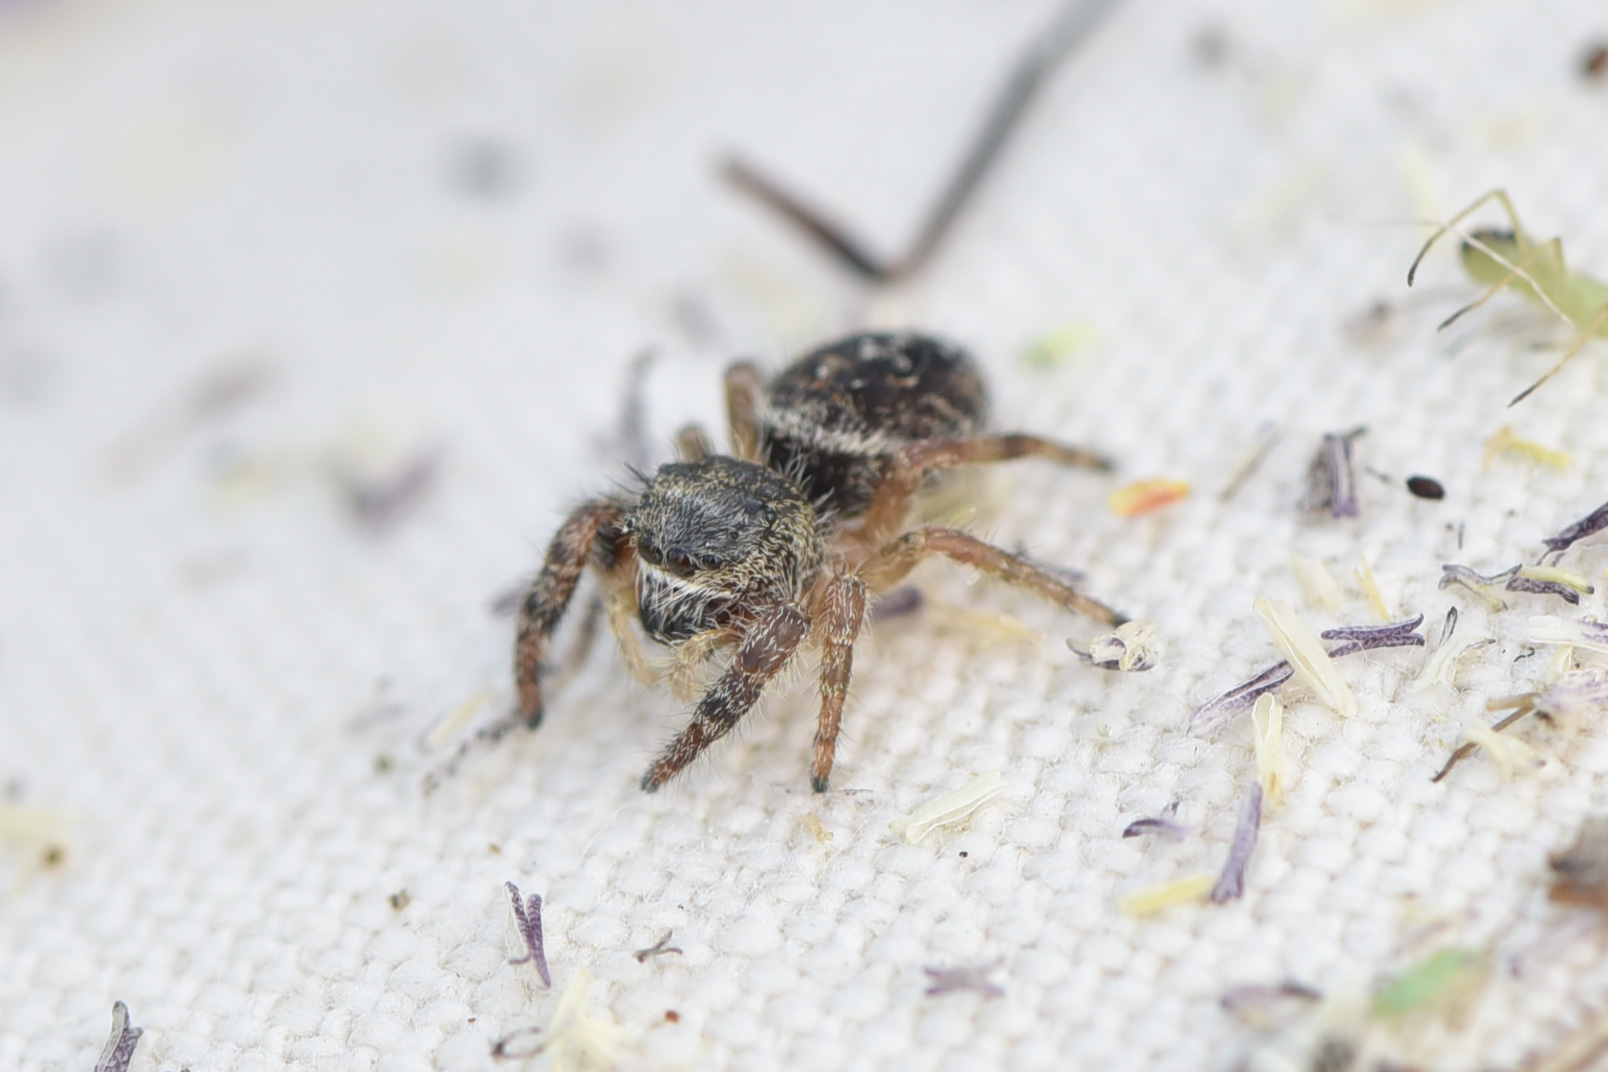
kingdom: Animalia
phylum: Arthropoda
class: Arachnida
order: Araneae
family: Salticidae
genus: Phidippus
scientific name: Phidippus purpuratus
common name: Marbled purple jumping spider
